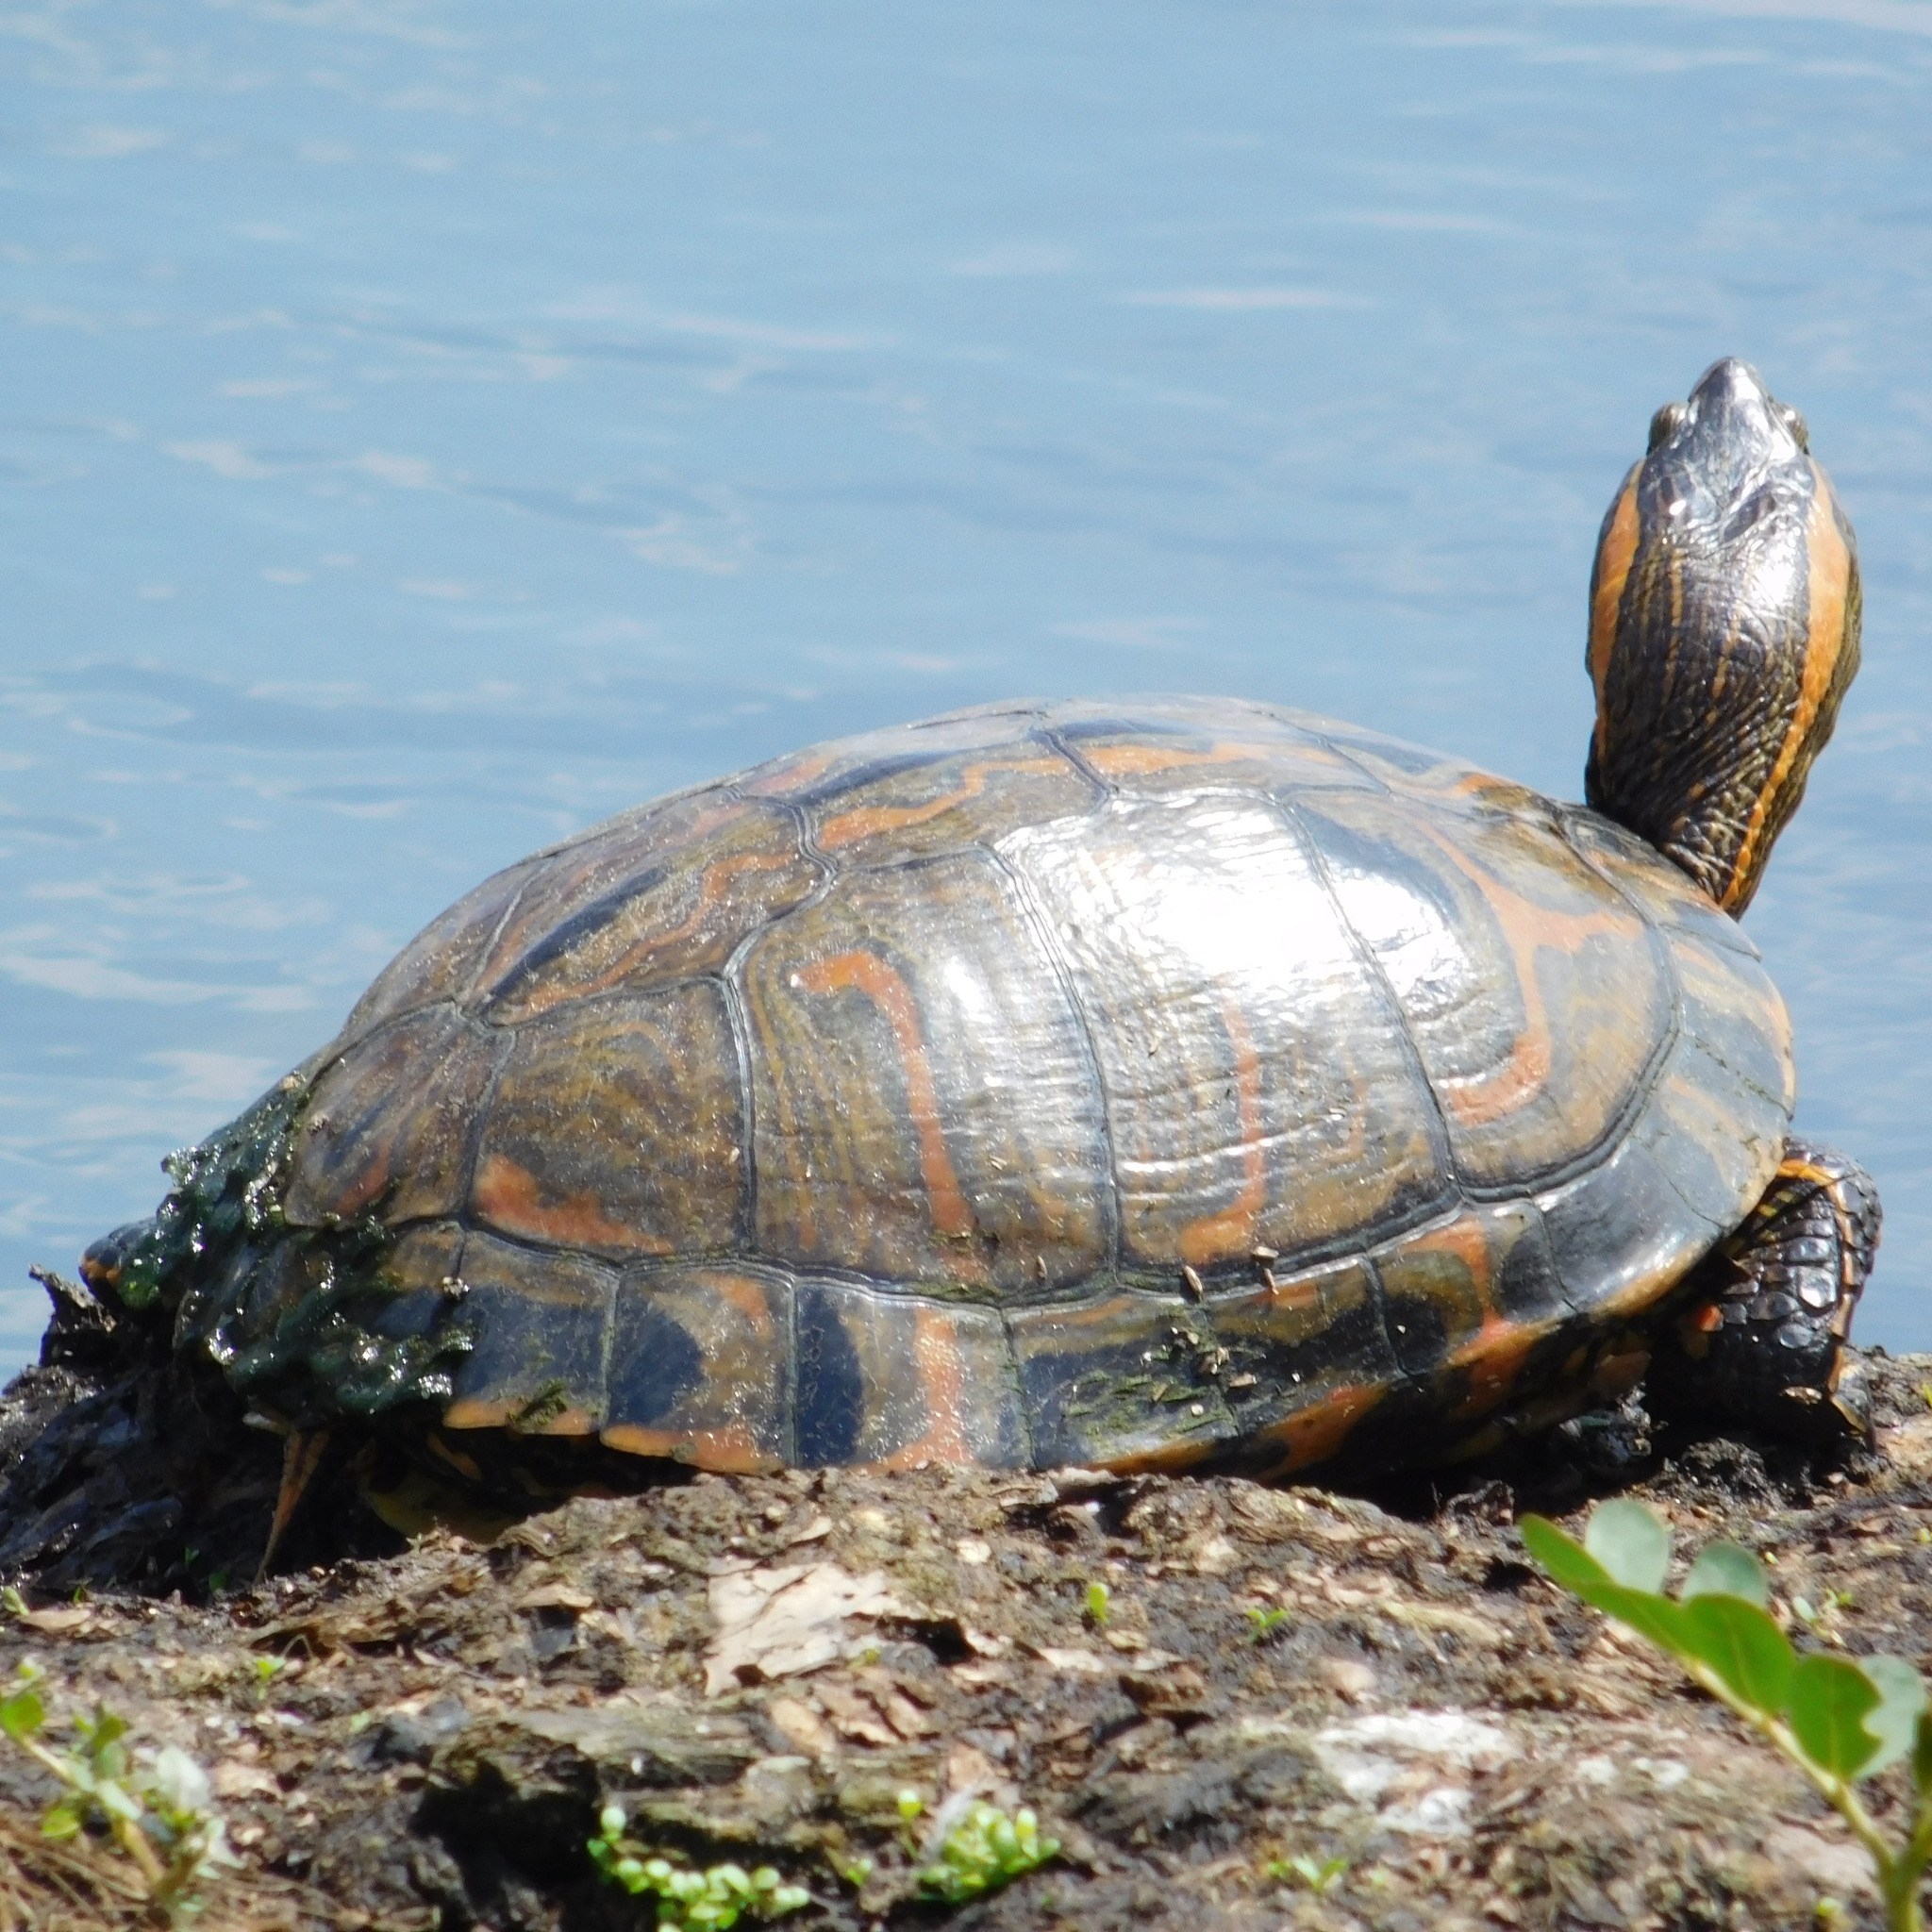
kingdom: Animalia
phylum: Chordata
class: Testudines
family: Emydidae
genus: Trachemys
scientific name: Trachemys dorbigni
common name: Black-bellied slider
